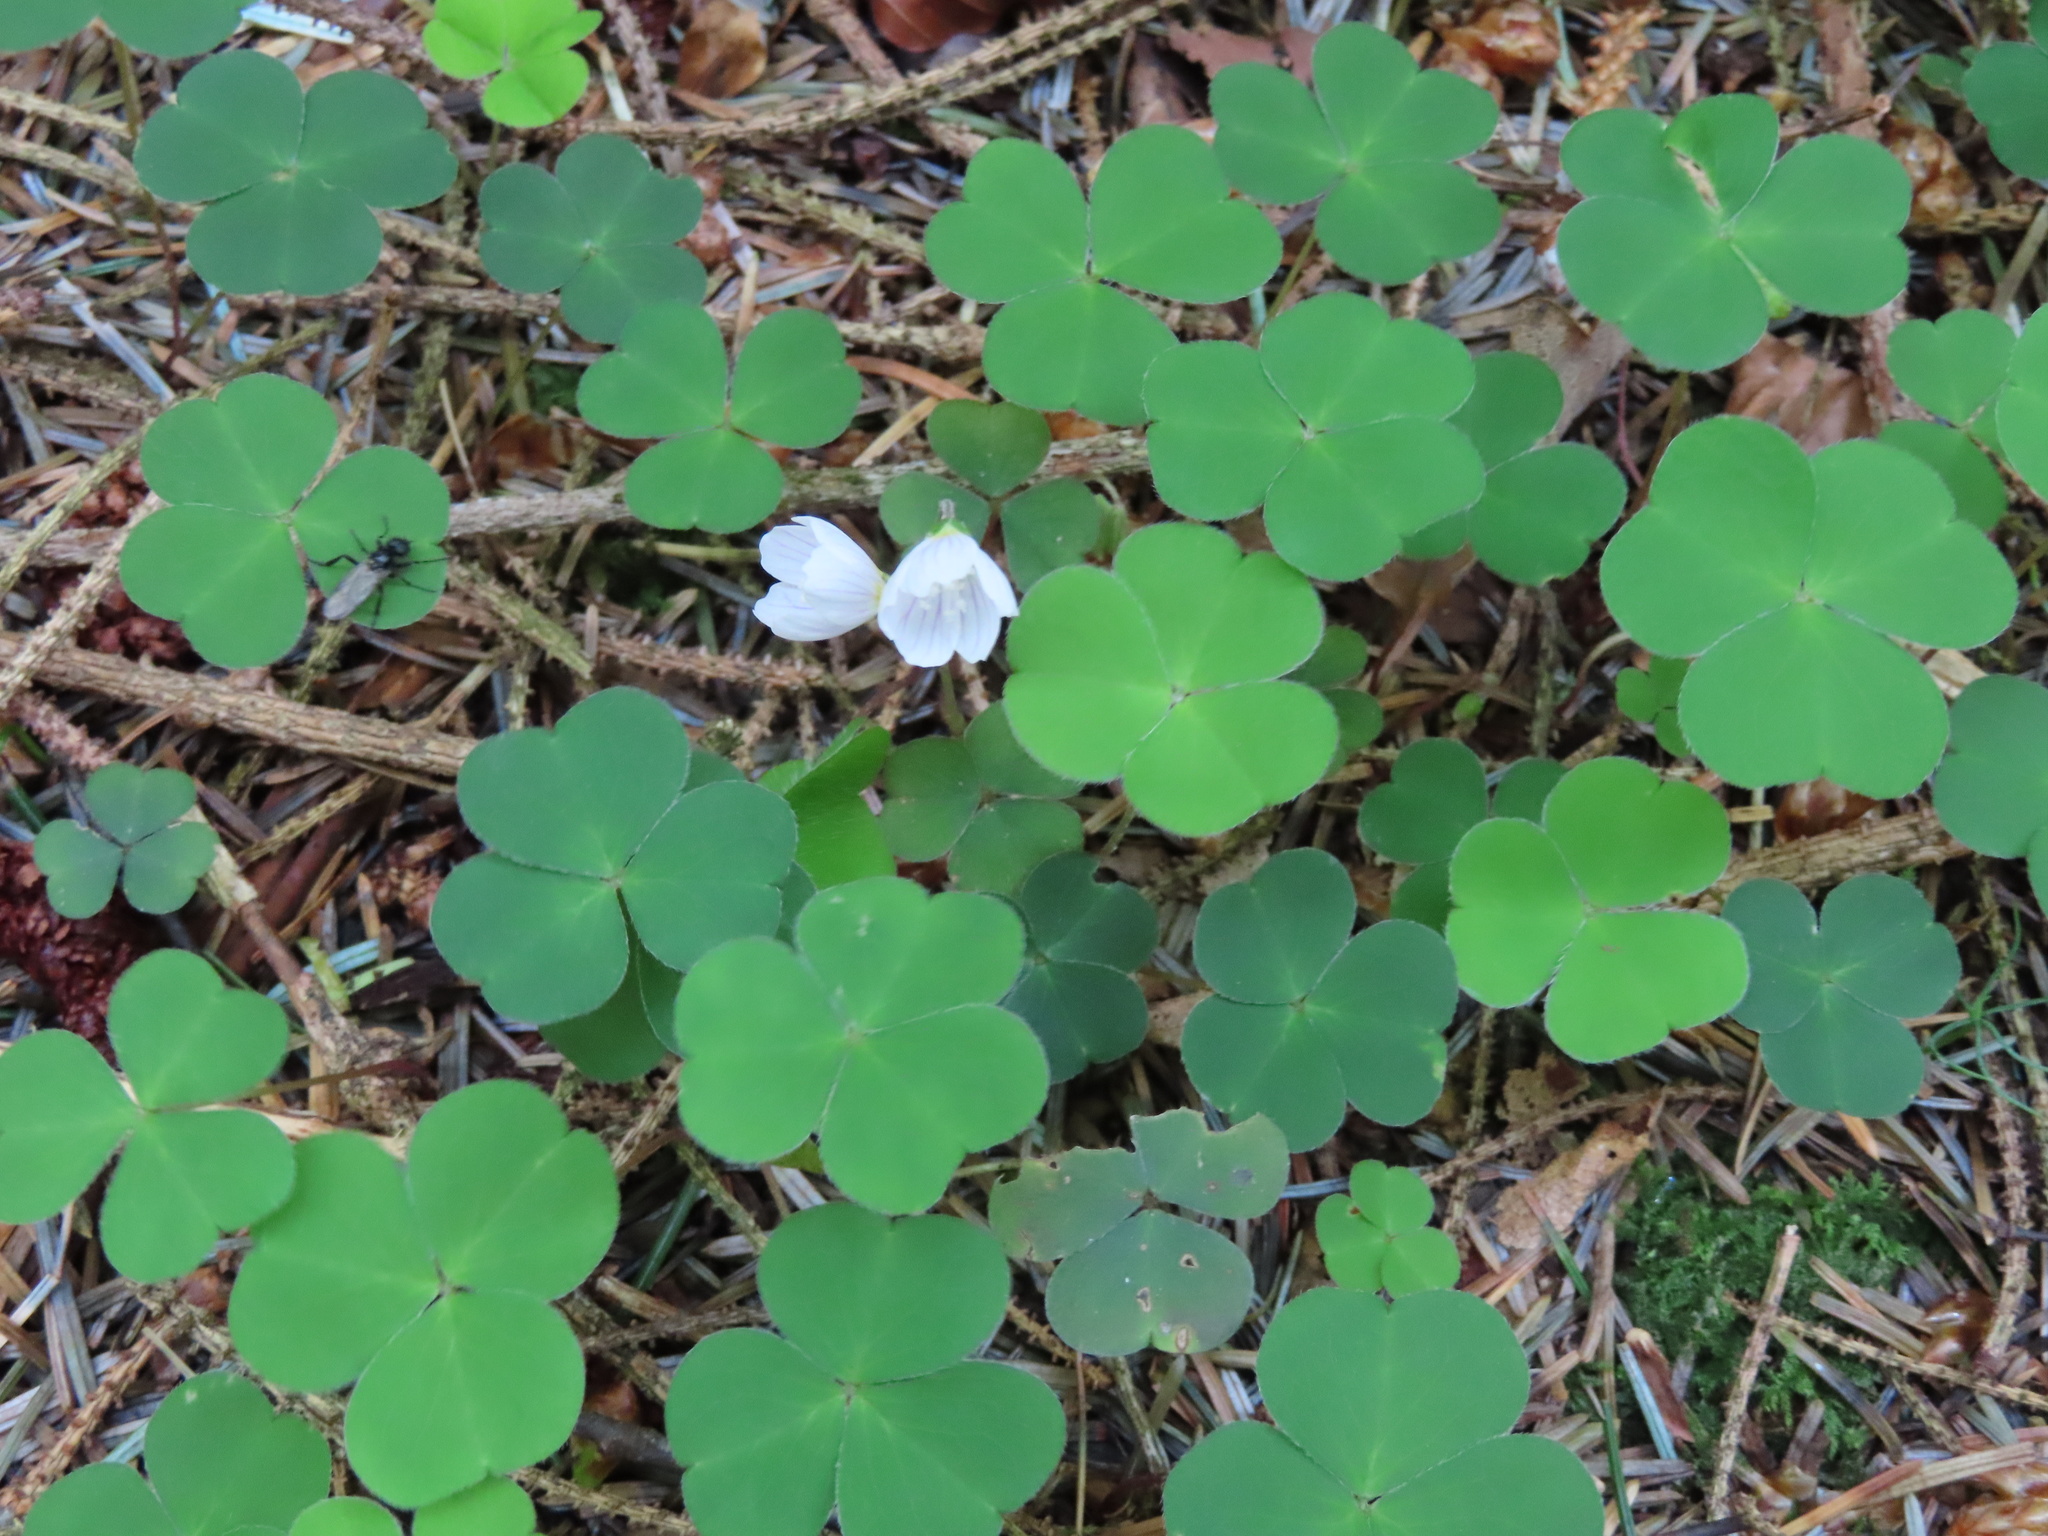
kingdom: Plantae
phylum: Tracheophyta
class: Magnoliopsida
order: Oxalidales
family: Oxalidaceae
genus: Oxalis
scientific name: Oxalis acetosella
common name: Wood-sorrel
